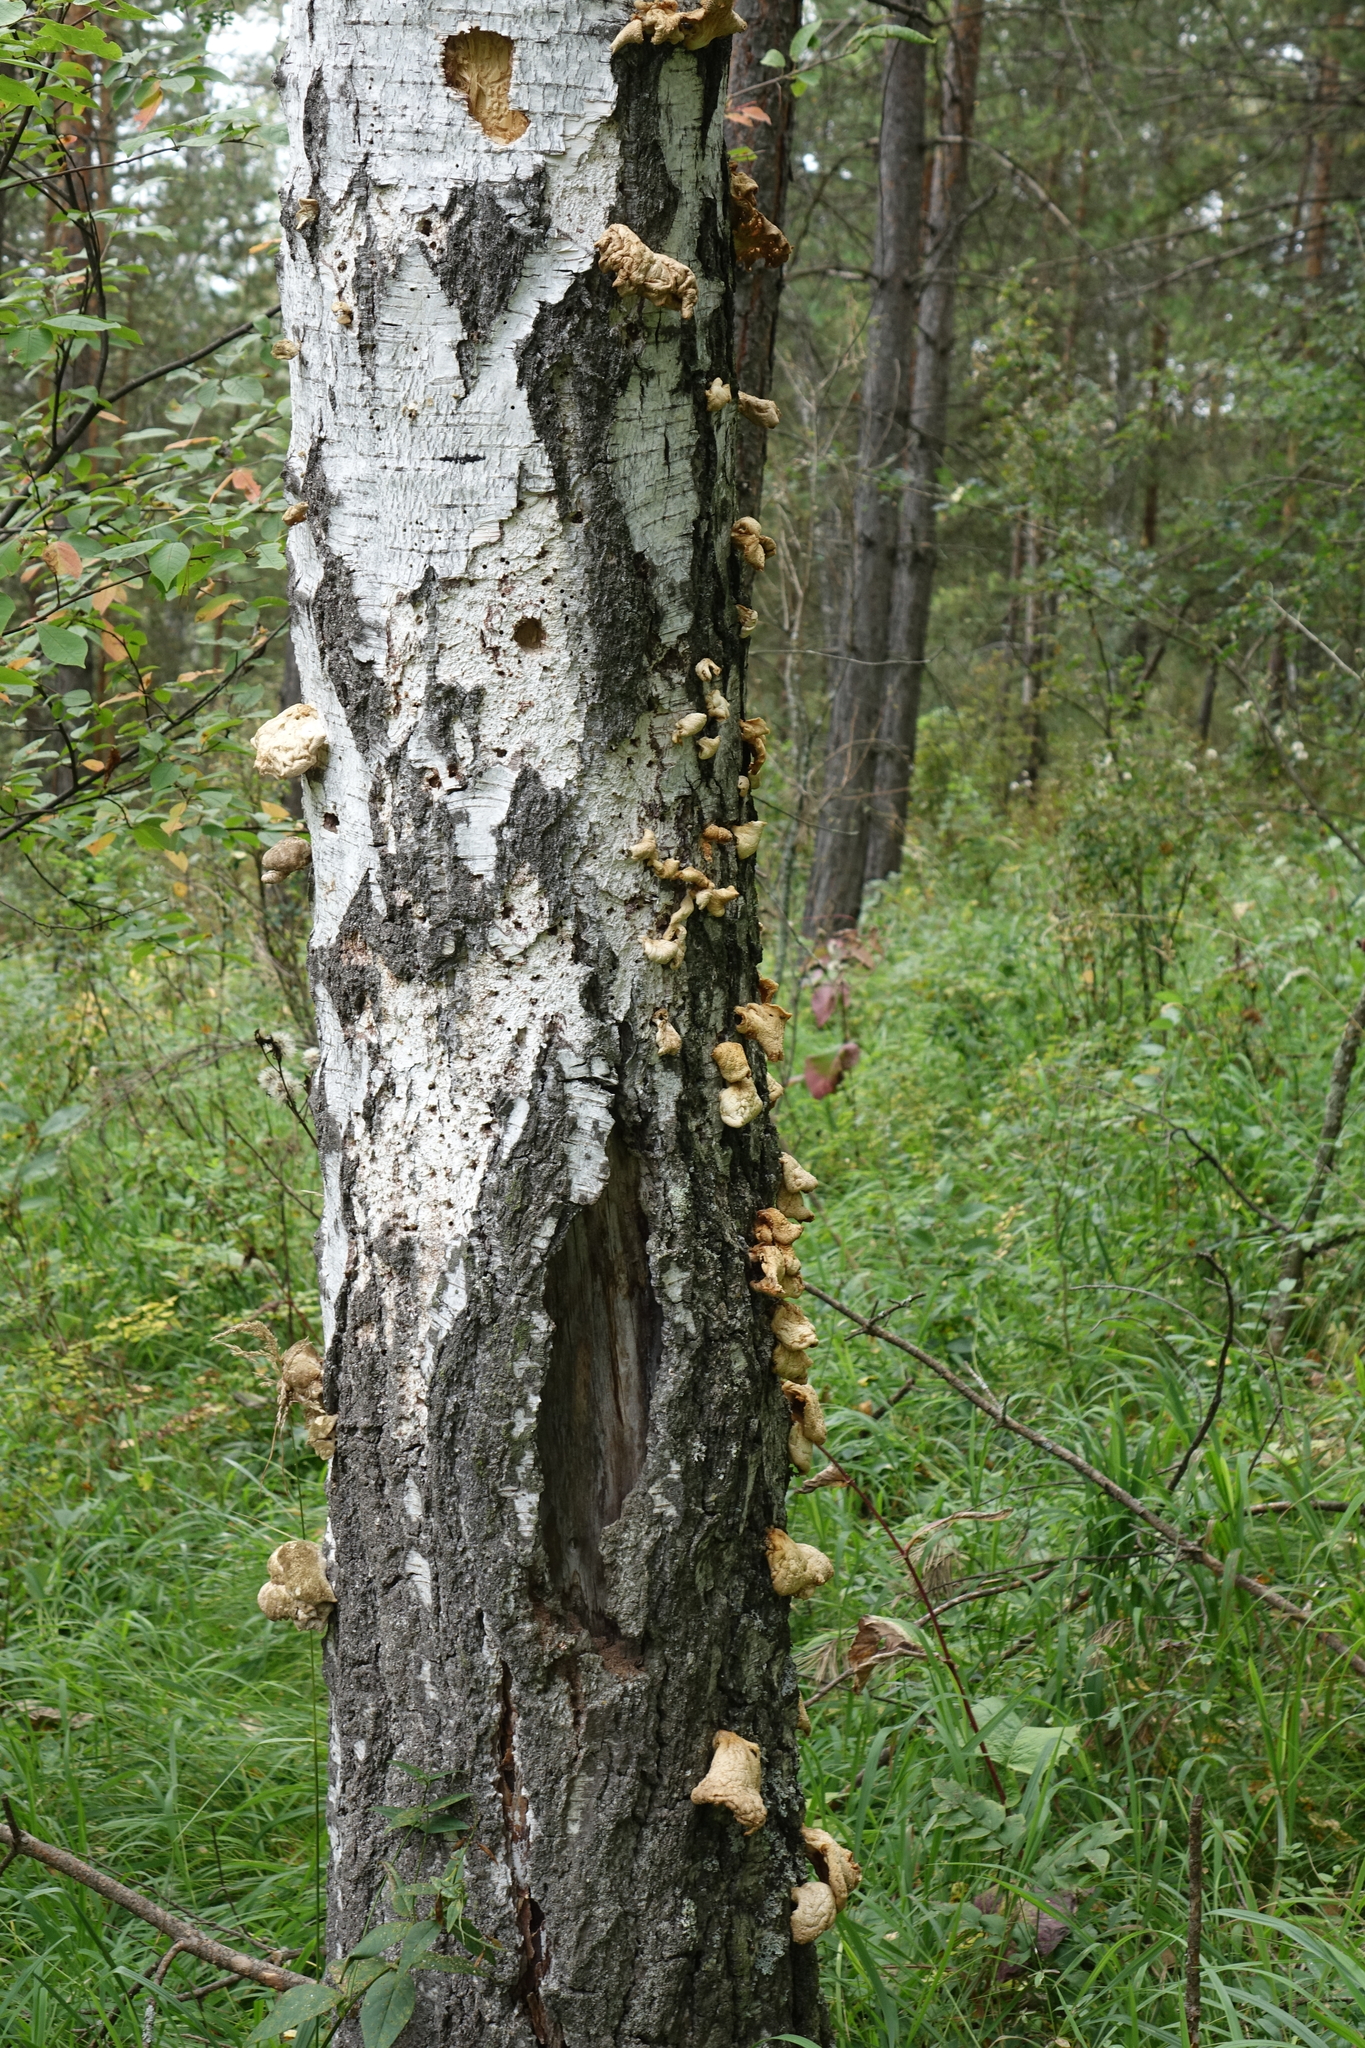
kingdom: Plantae
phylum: Tracheophyta
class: Magnoliopsida
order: Fagales
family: Betulaceae
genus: Betula
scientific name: Betula pendula
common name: Silver birch
